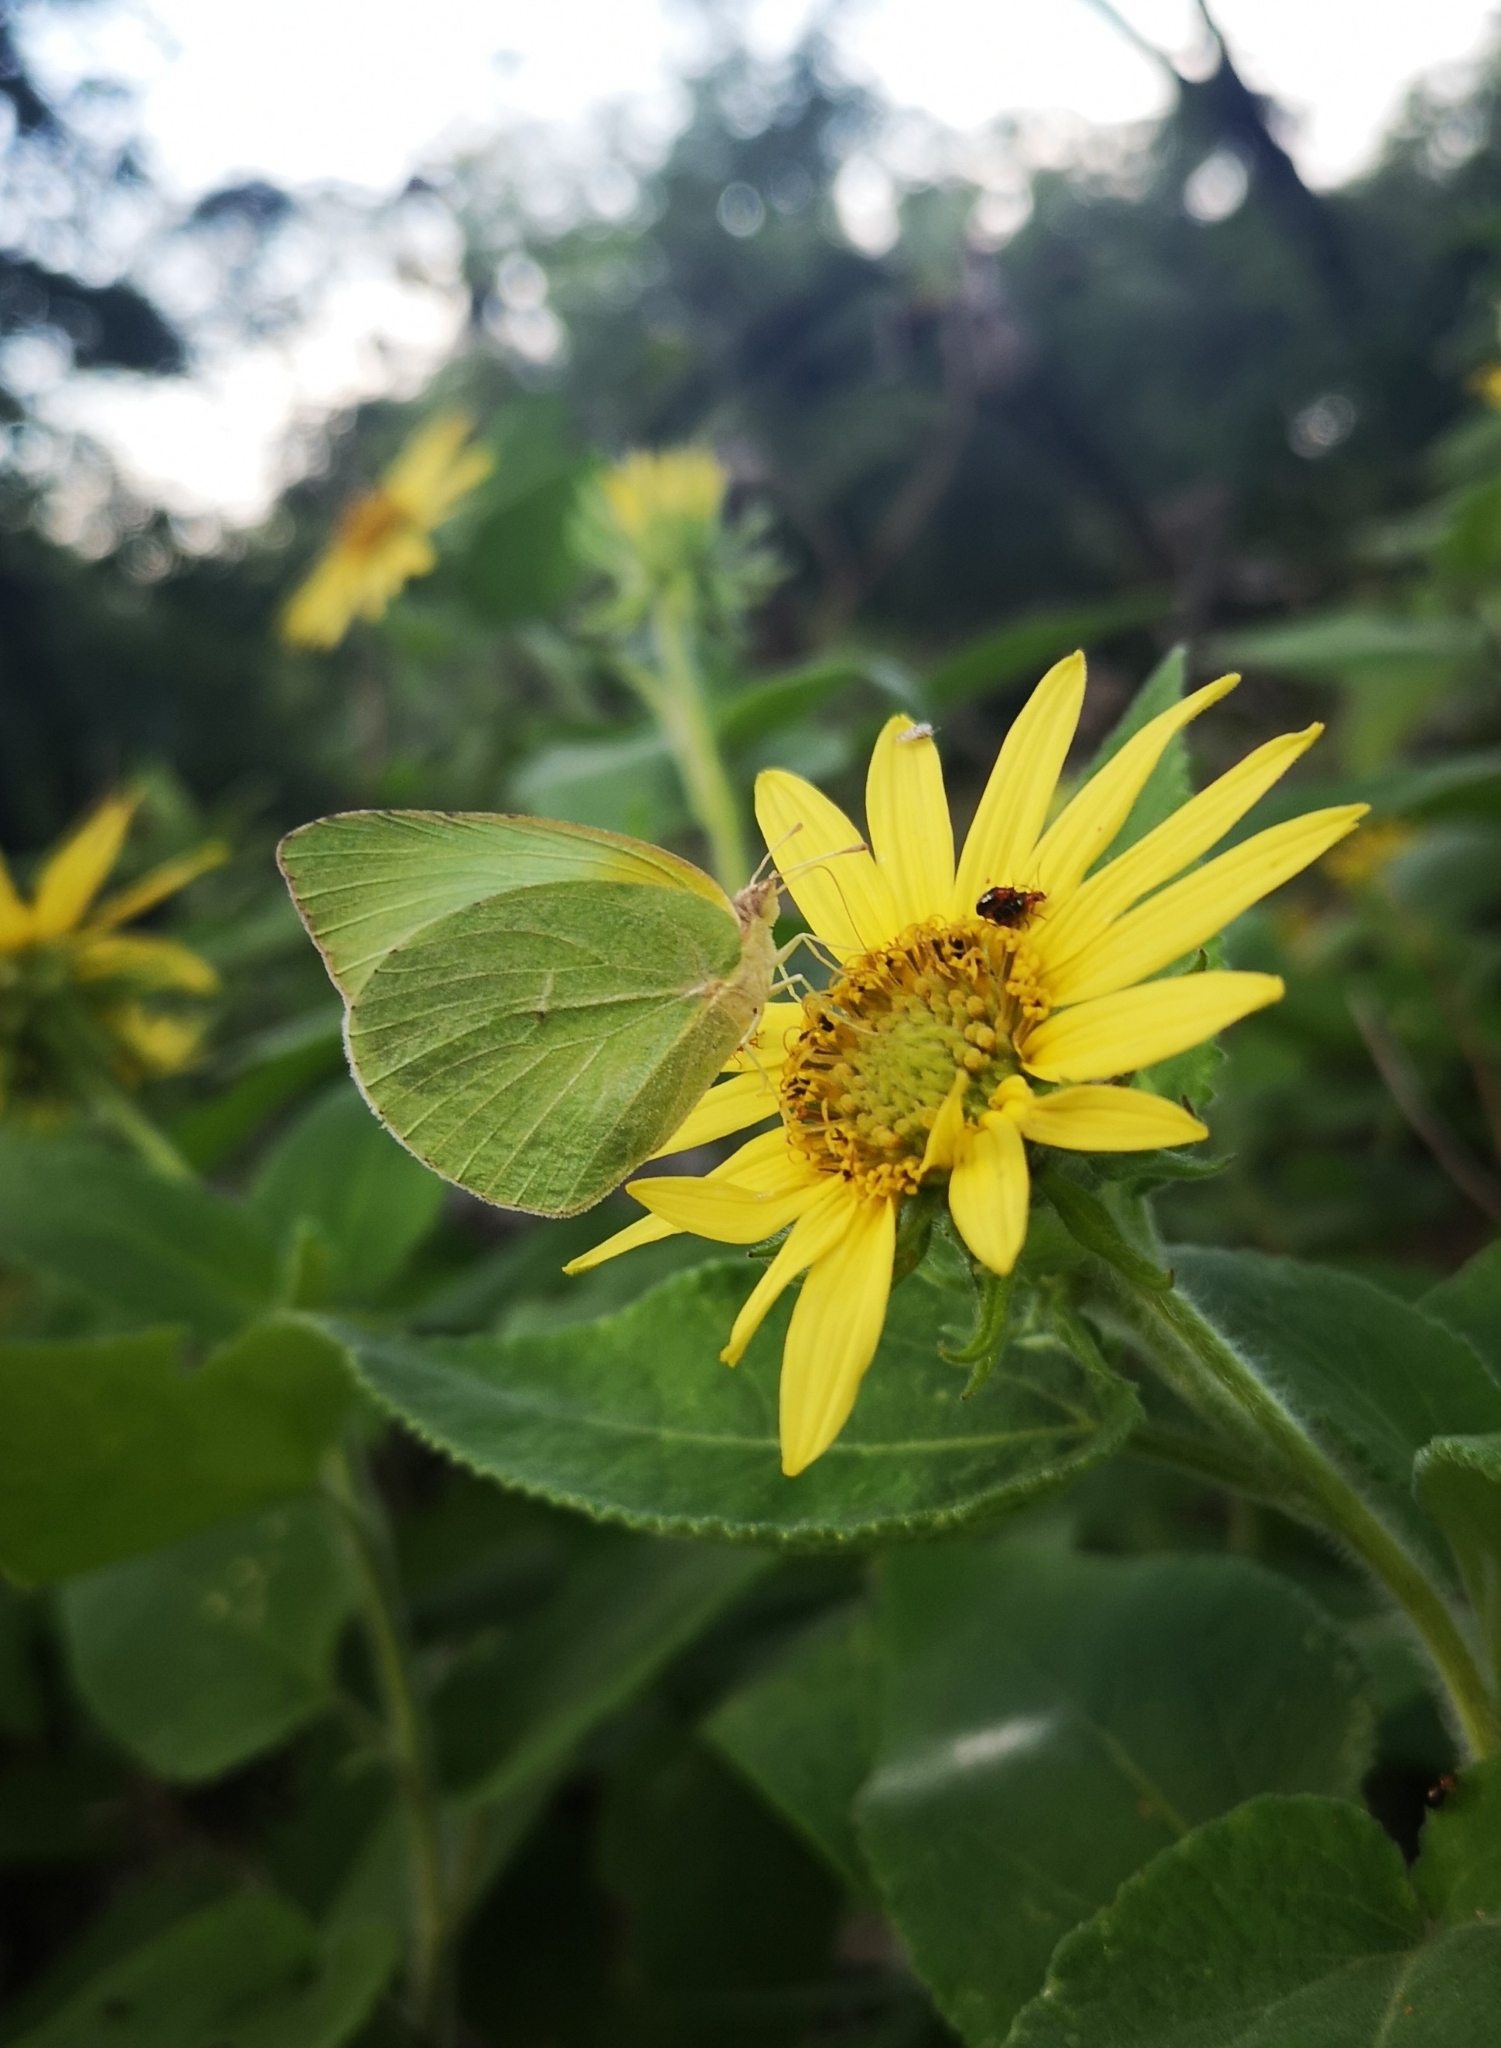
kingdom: Animalia
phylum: Arthropoda
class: Insecta
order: Lepidoptera
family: Pieridae
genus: Kricogonia
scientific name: Kricogonia lyside
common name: Guayacan sulphur,
